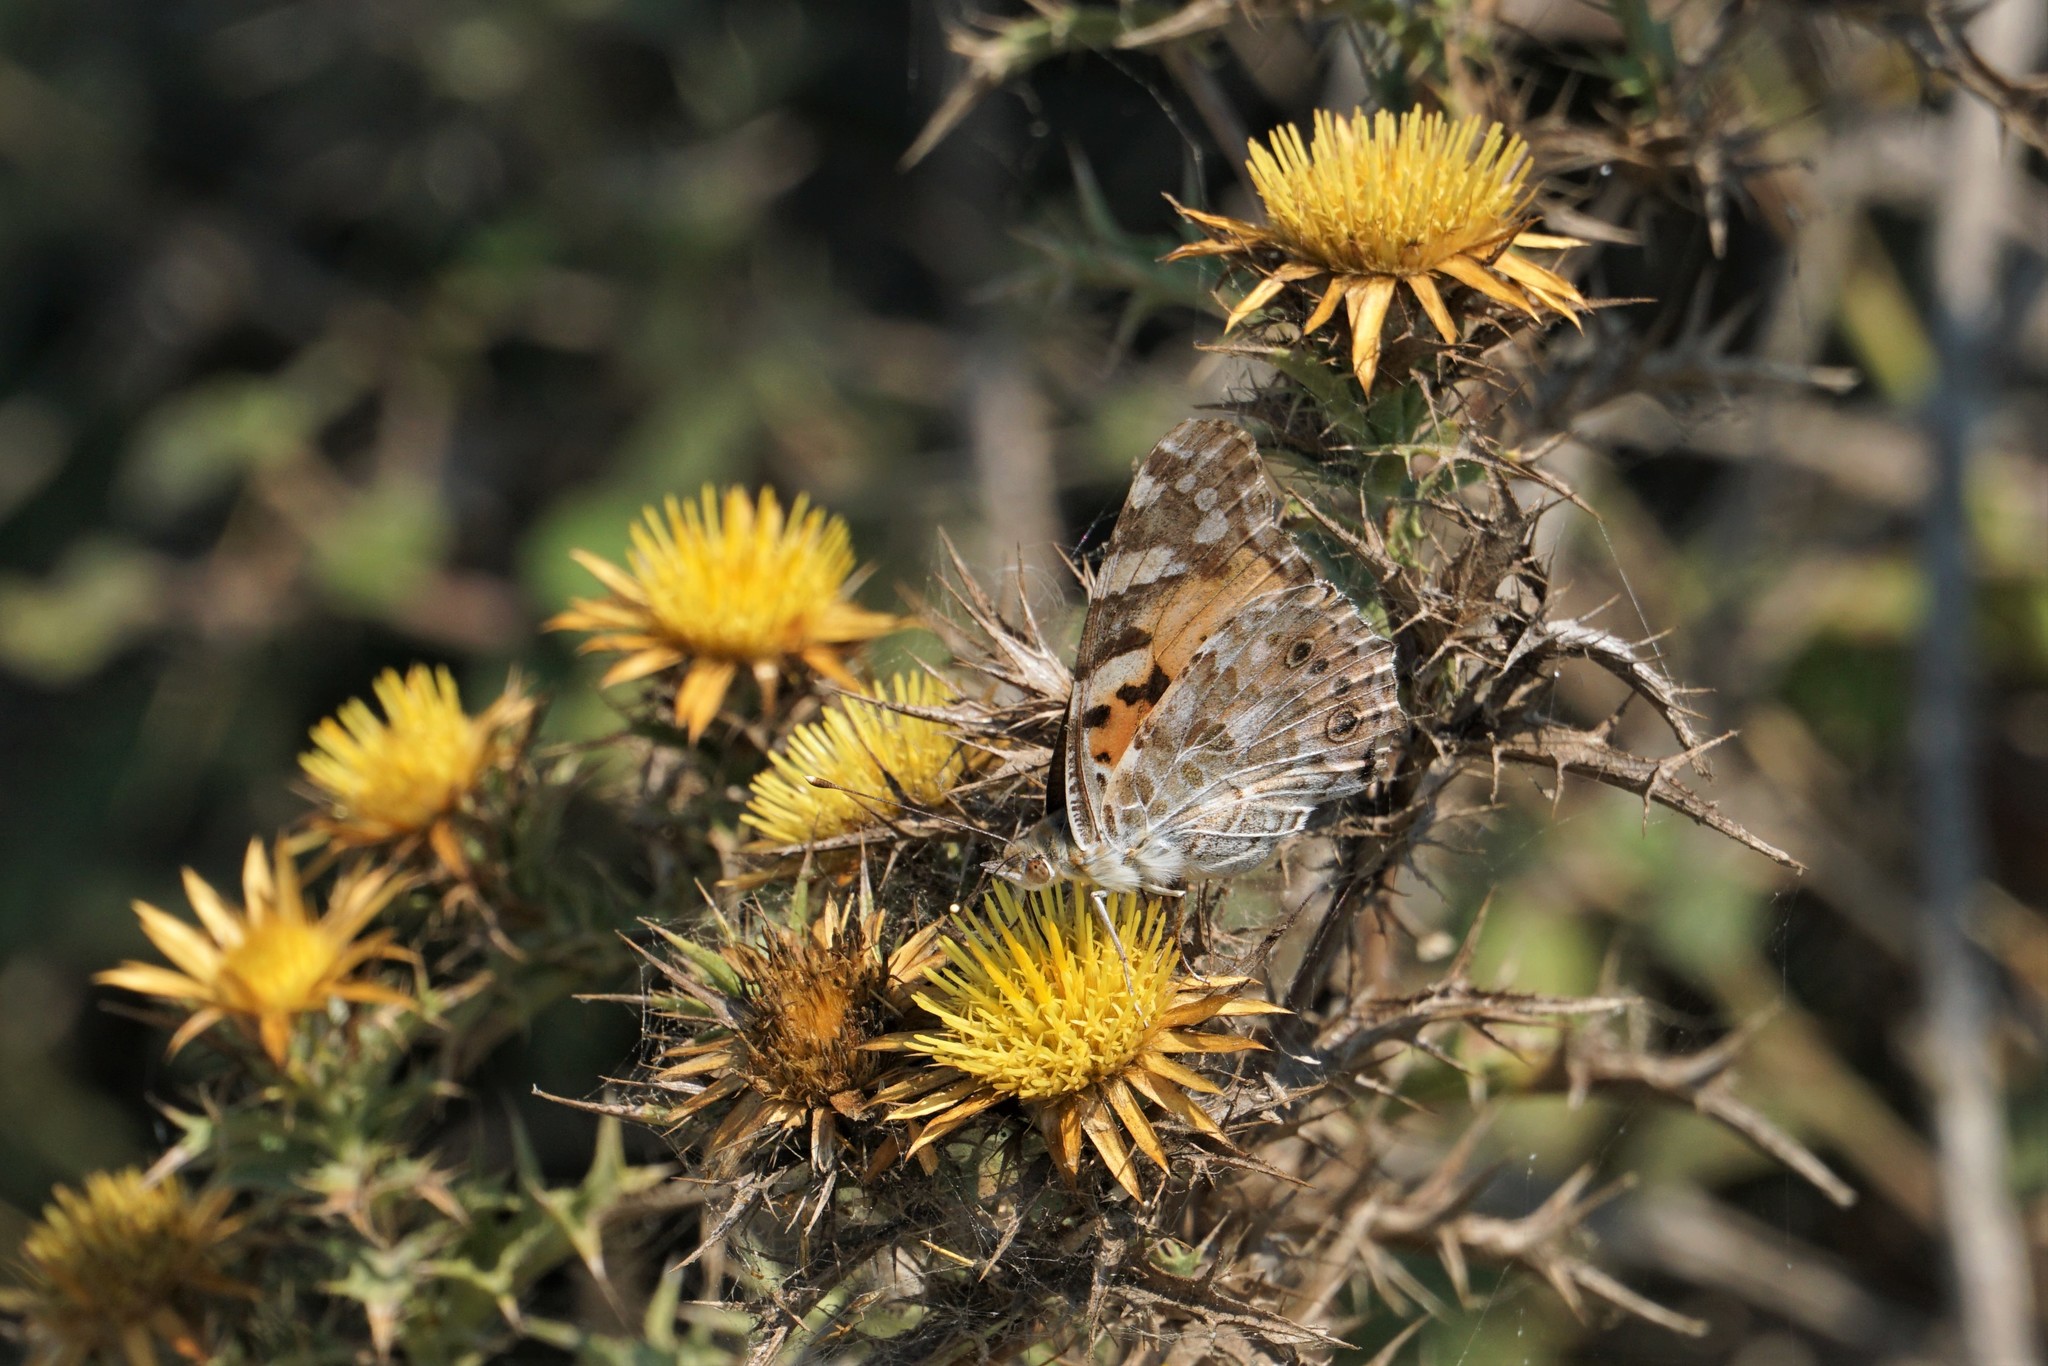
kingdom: Animalia
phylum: Arthropoda
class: Insecta
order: Lepidoptera
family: Nymphalidae
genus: Vanessa
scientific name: Vanessa cardui
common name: Painted lady
